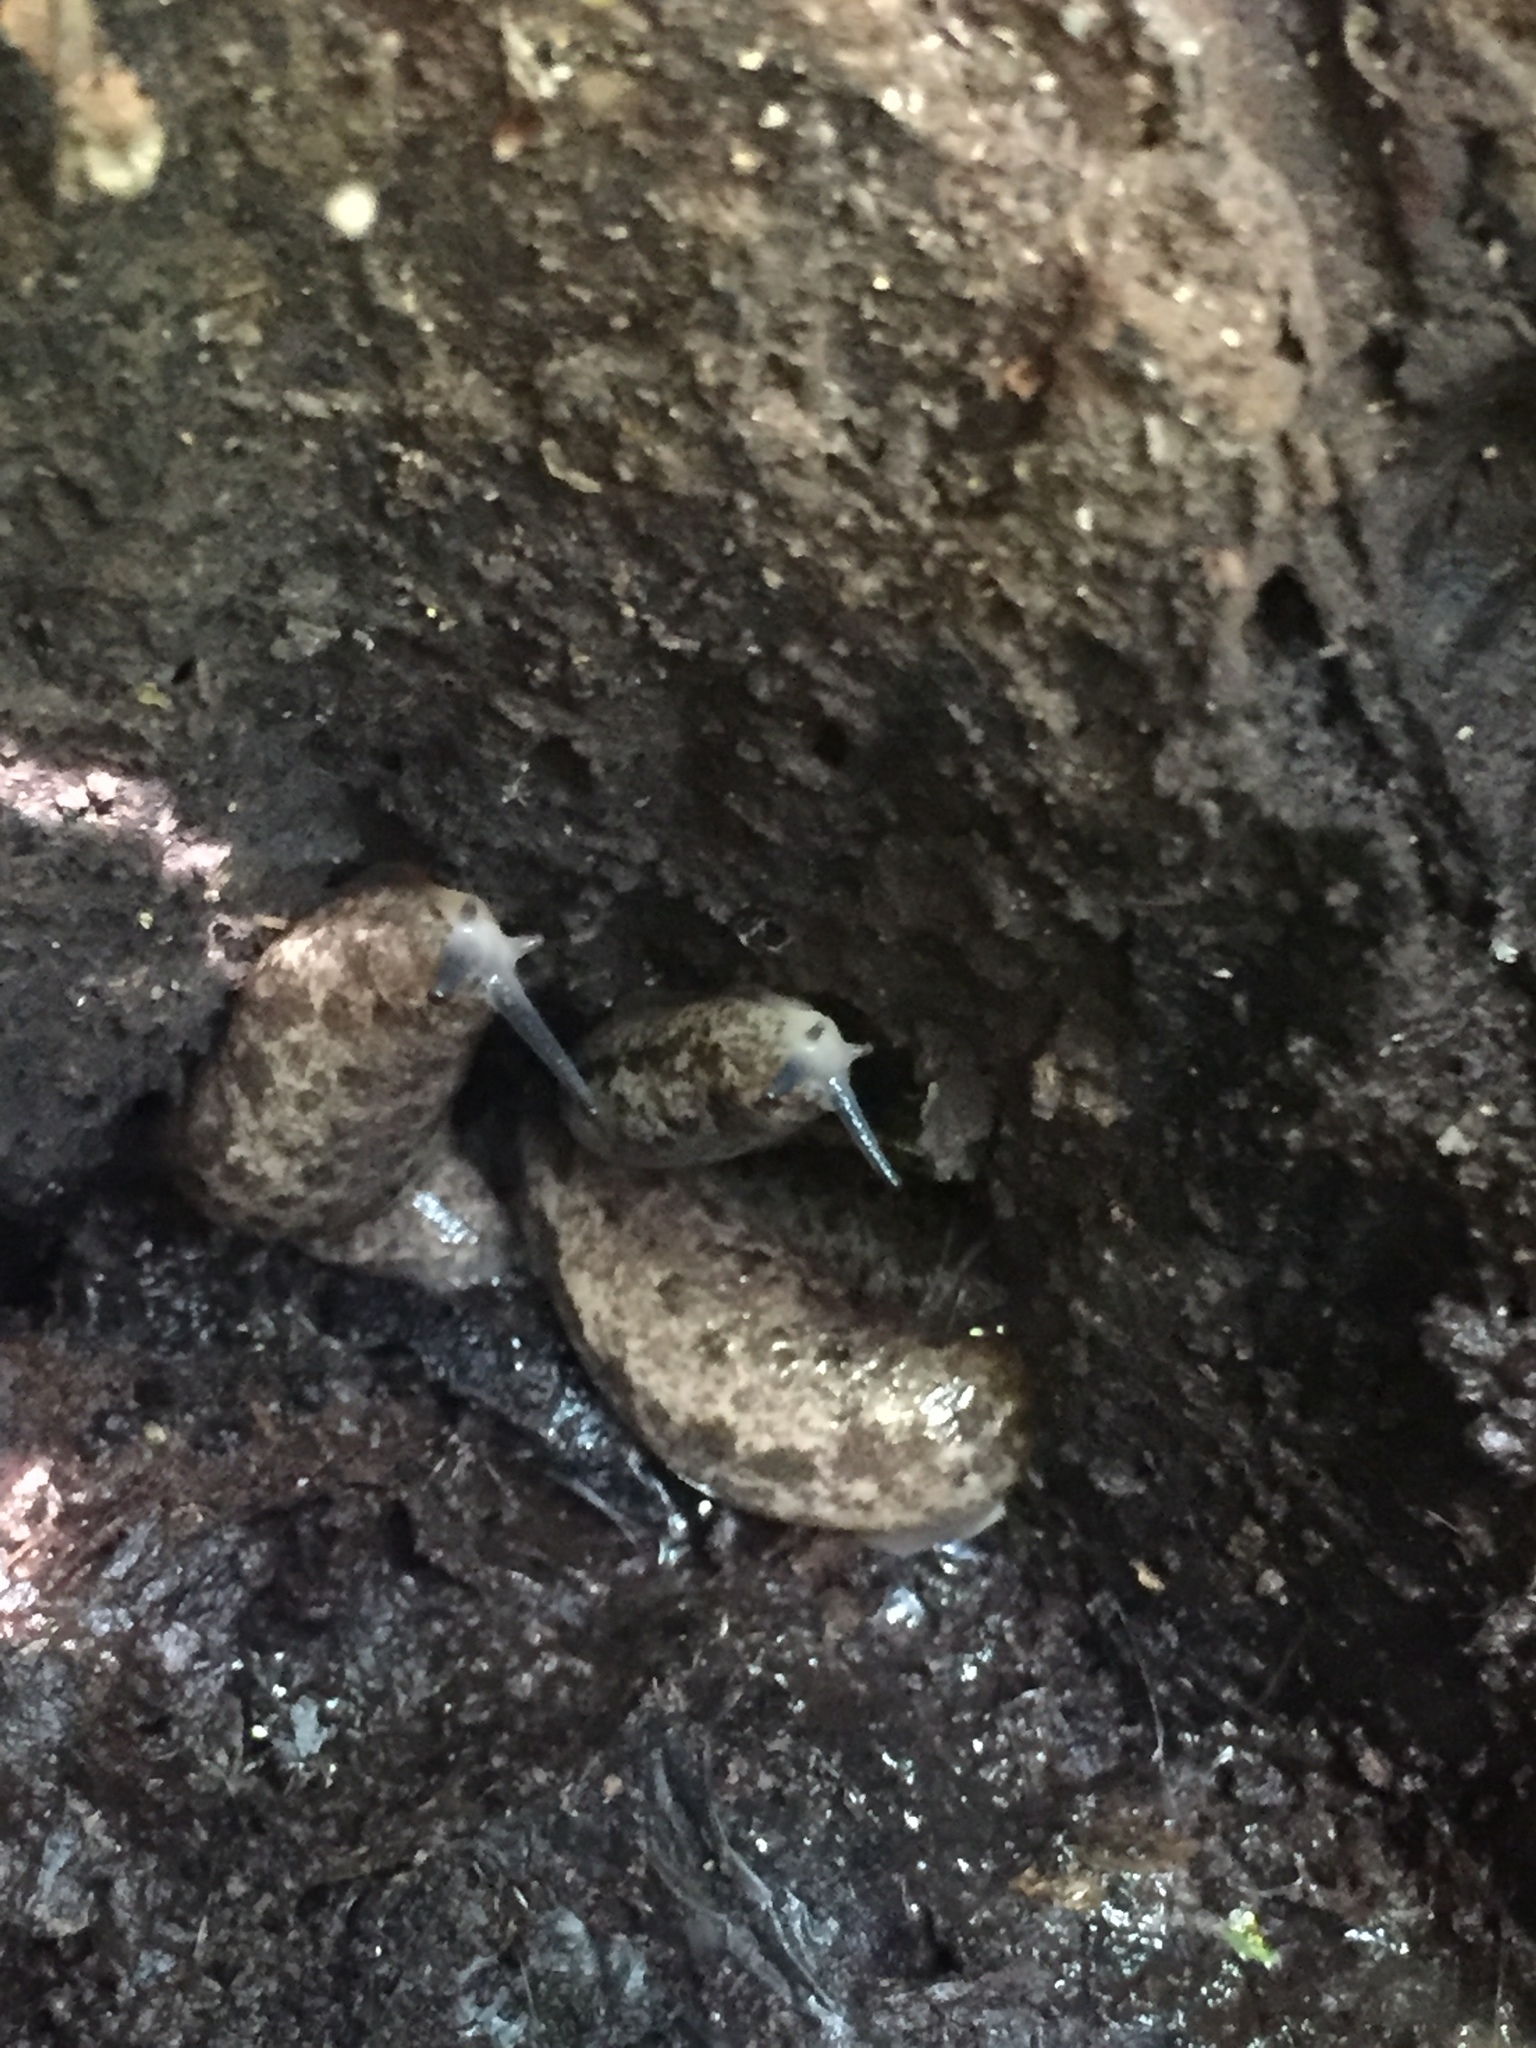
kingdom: Animalia
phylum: Mollusca
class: Gastropoda
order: Stylommatophora
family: Philomycidae
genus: Philomycus
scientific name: Philomycus carolinianus
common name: Carolina mantleslug
